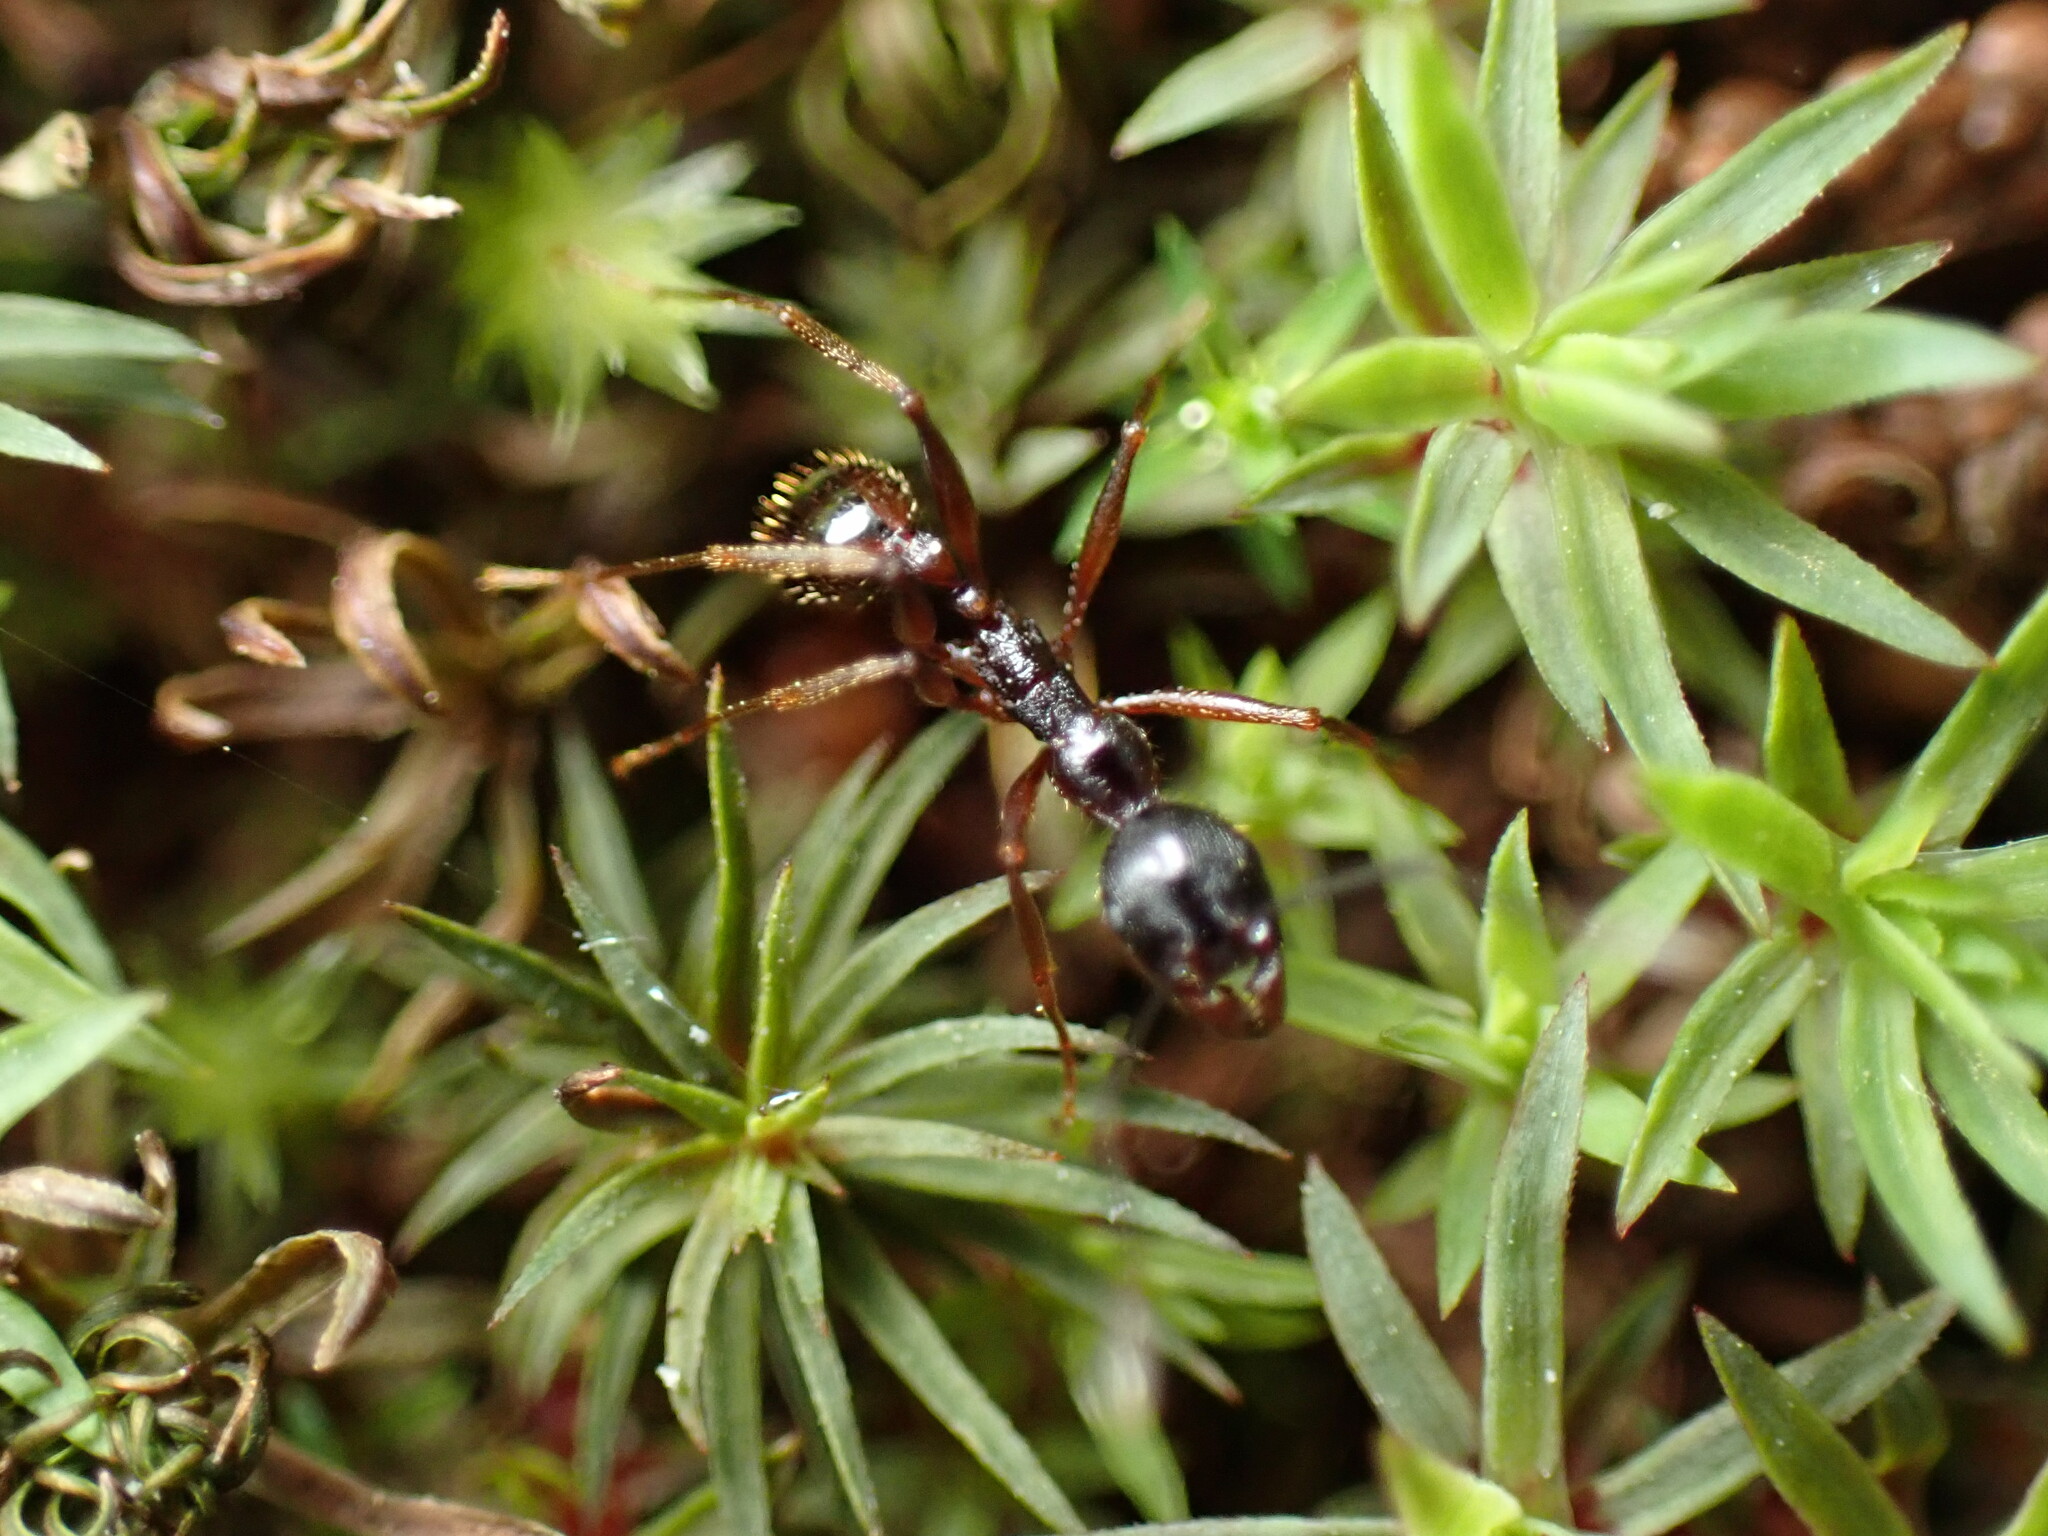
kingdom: Animalia
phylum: Arthropoda
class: Insecta
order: Hymenoptera
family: Formicidae
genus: Aphaenogaster
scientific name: Aphaenogaster famelica
